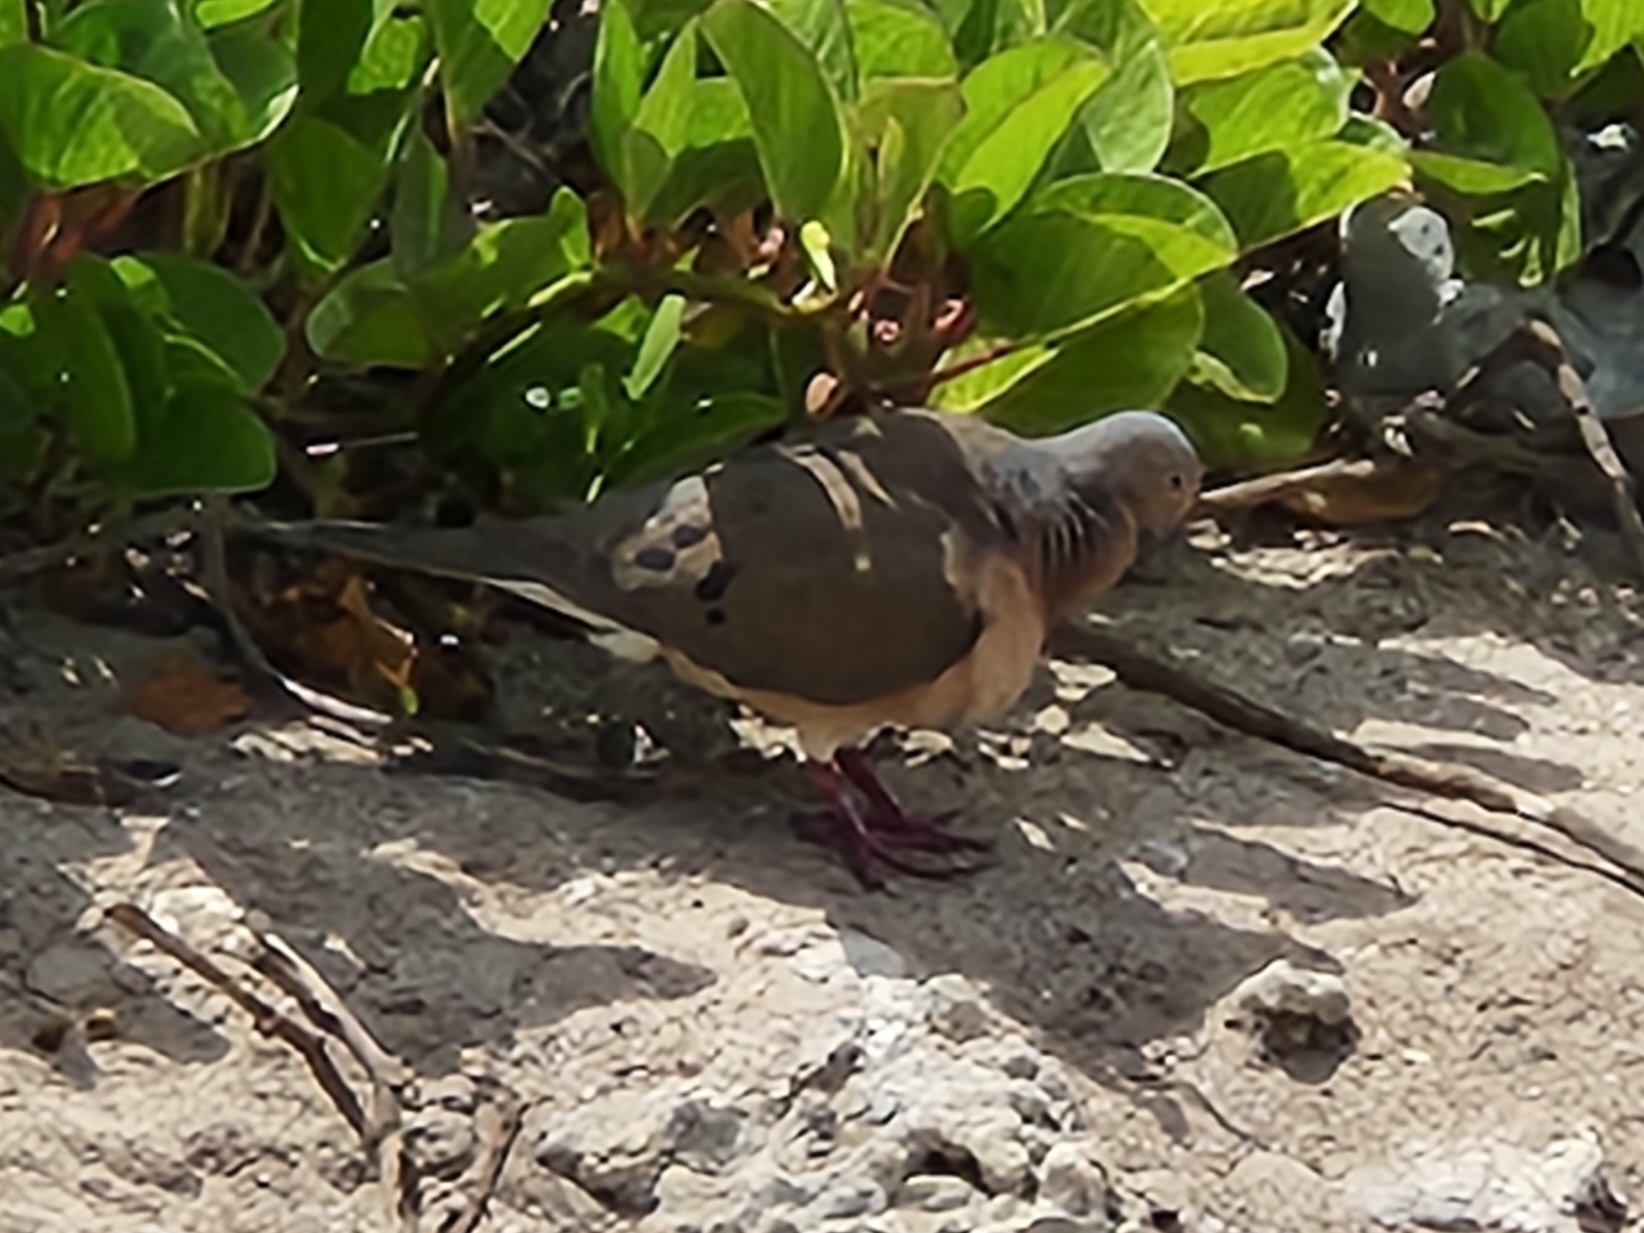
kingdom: Animalia
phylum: Chordata
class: Aves
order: Columbiformes
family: Columbidae
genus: Zenaida
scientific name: Zenaida macroura
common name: Mourning dove
